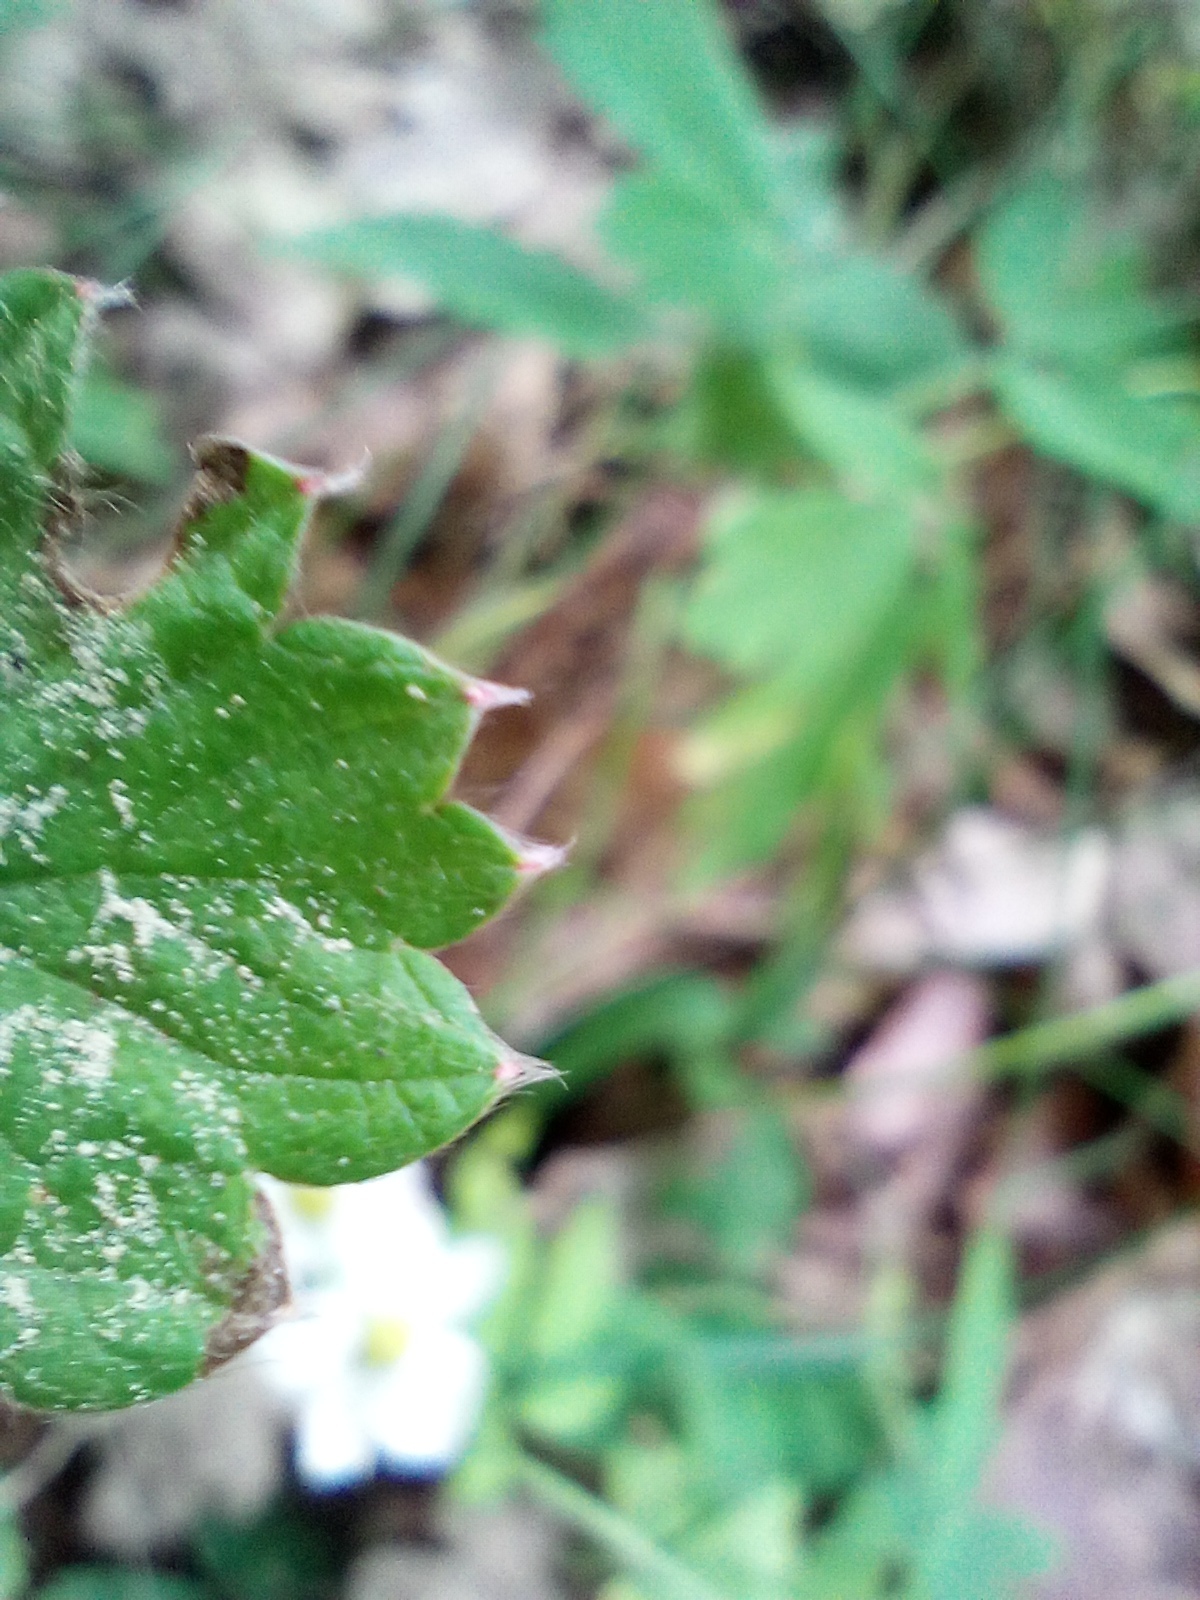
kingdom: Plantae
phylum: Tracheophyta
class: Magnoliopsida
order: Rosales
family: Rosaceae
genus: Fragaria
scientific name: Fragaria moschata
